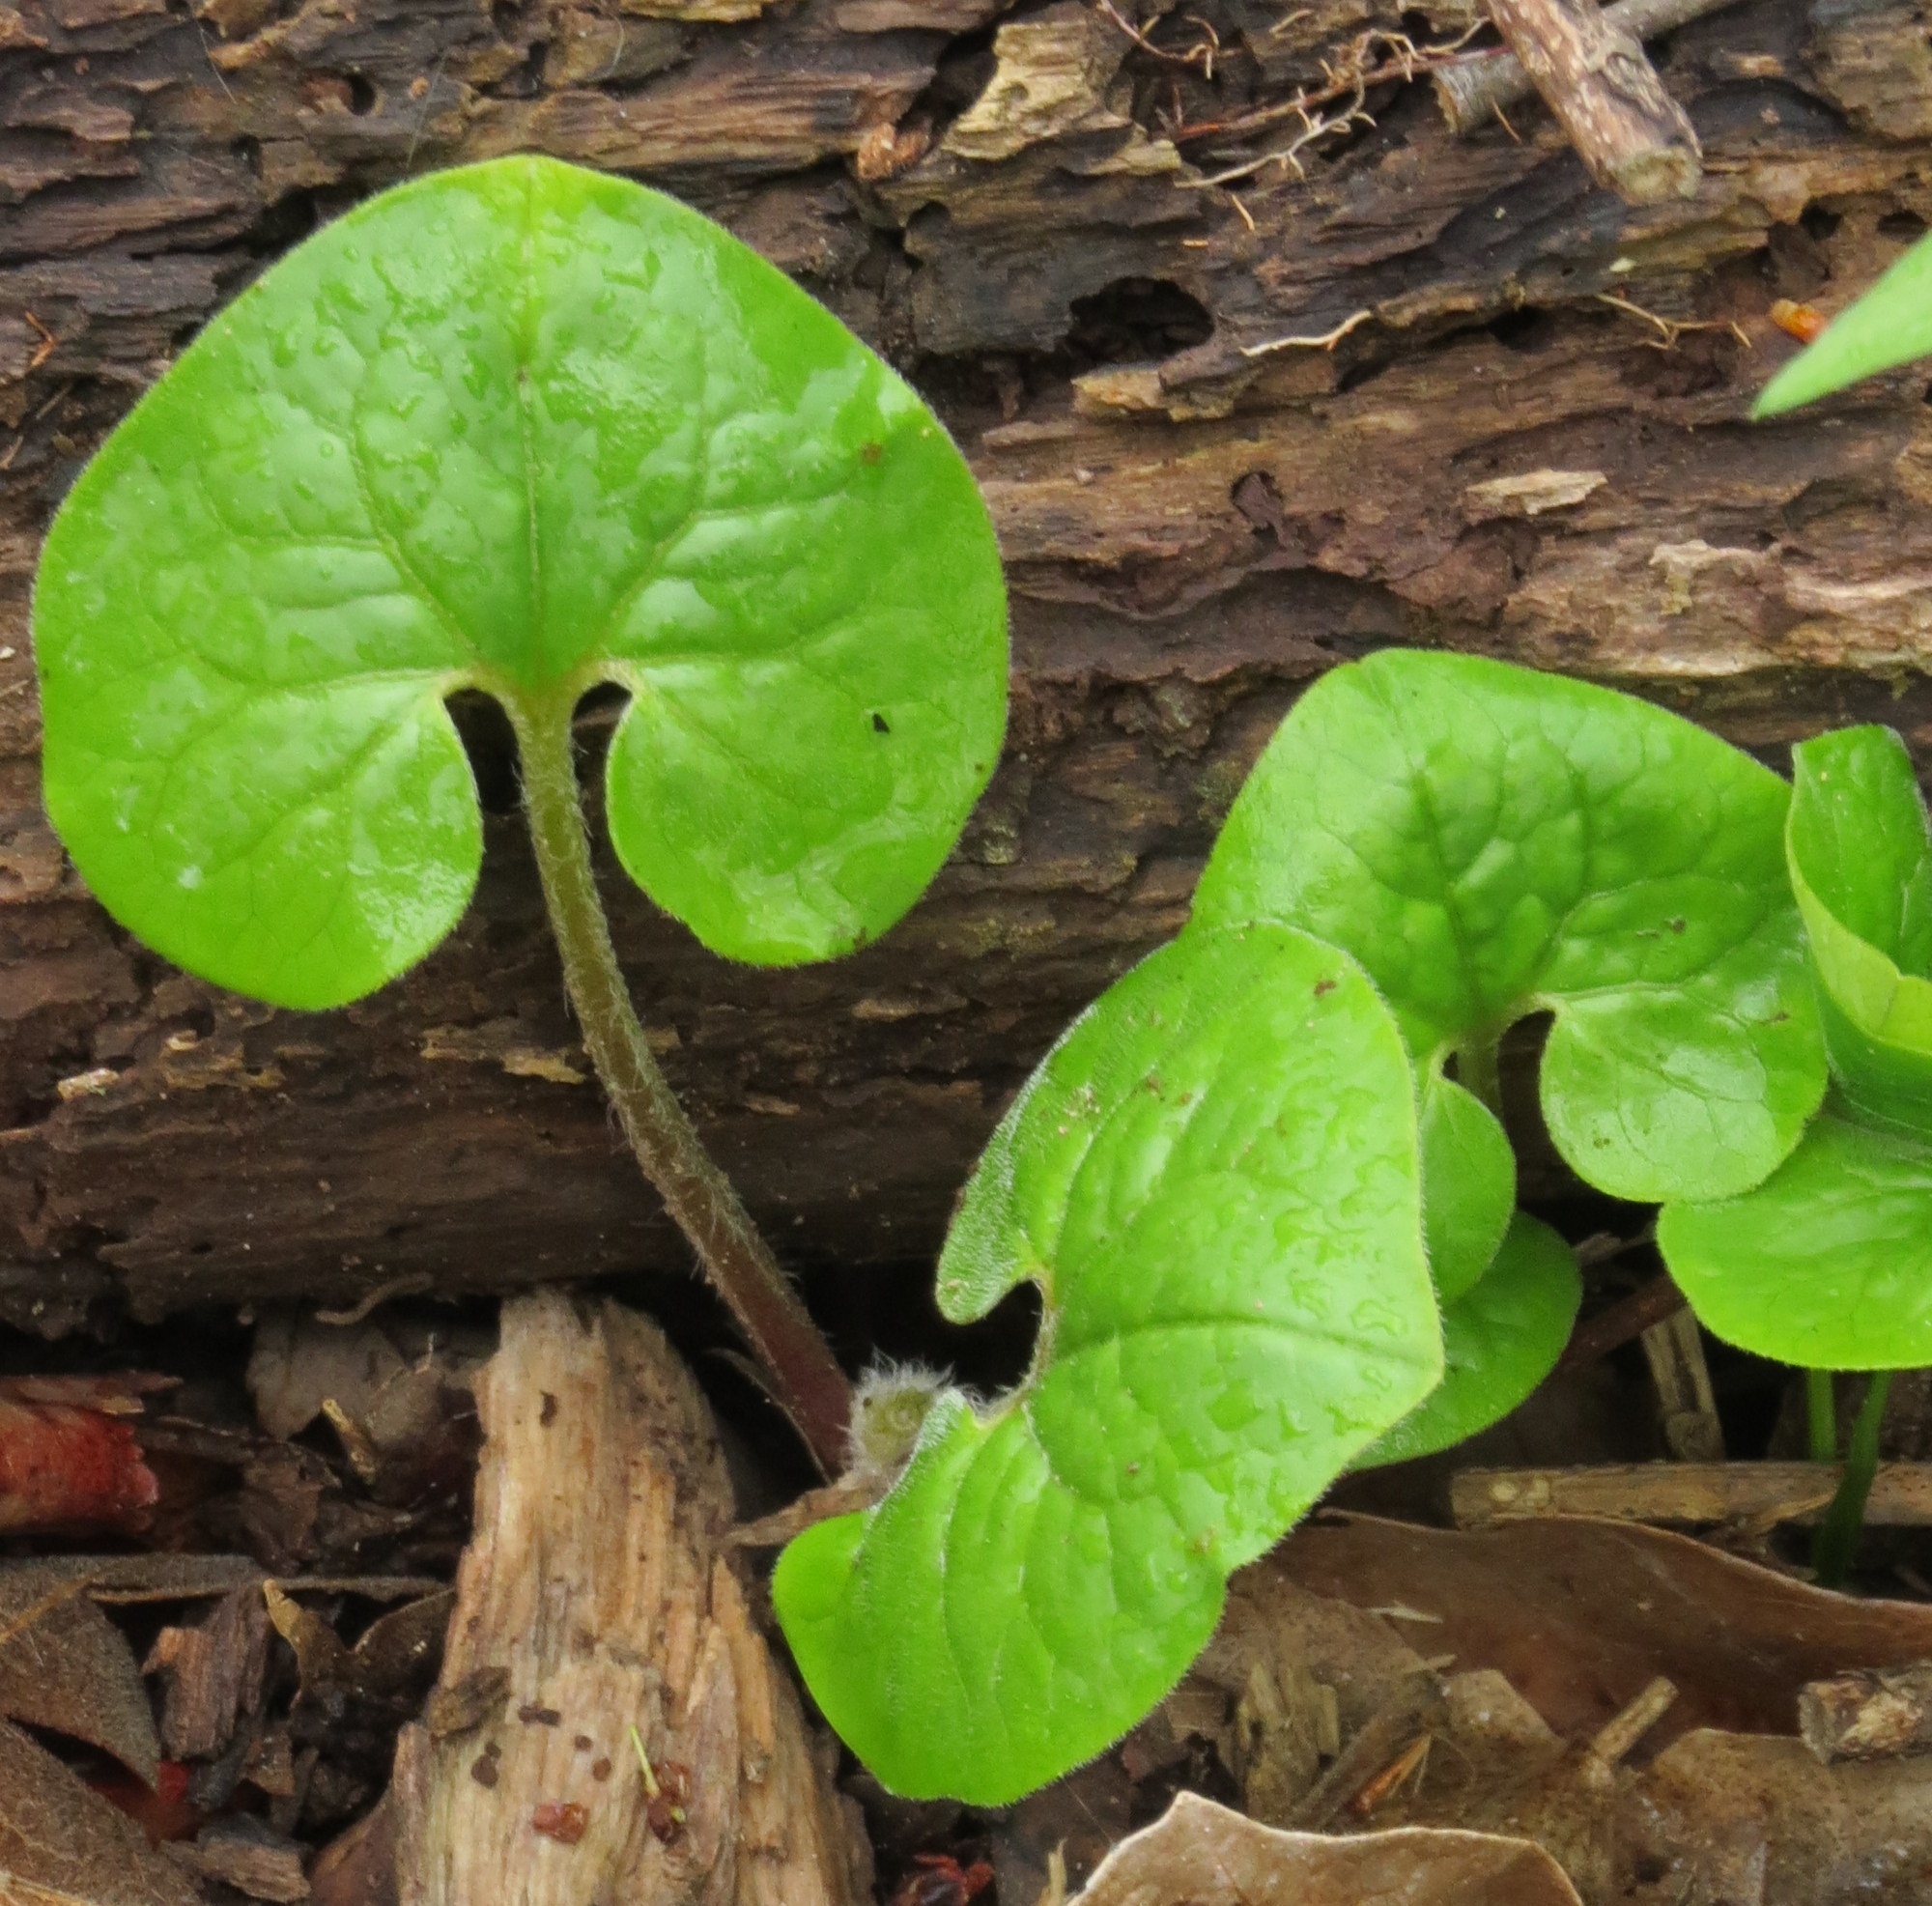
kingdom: Plantae
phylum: Tracheophyta
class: Magnoliopsida
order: Piperales
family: Aristolochiaceae
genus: Asarum
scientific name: Asarum canadense
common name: Wild ginger
